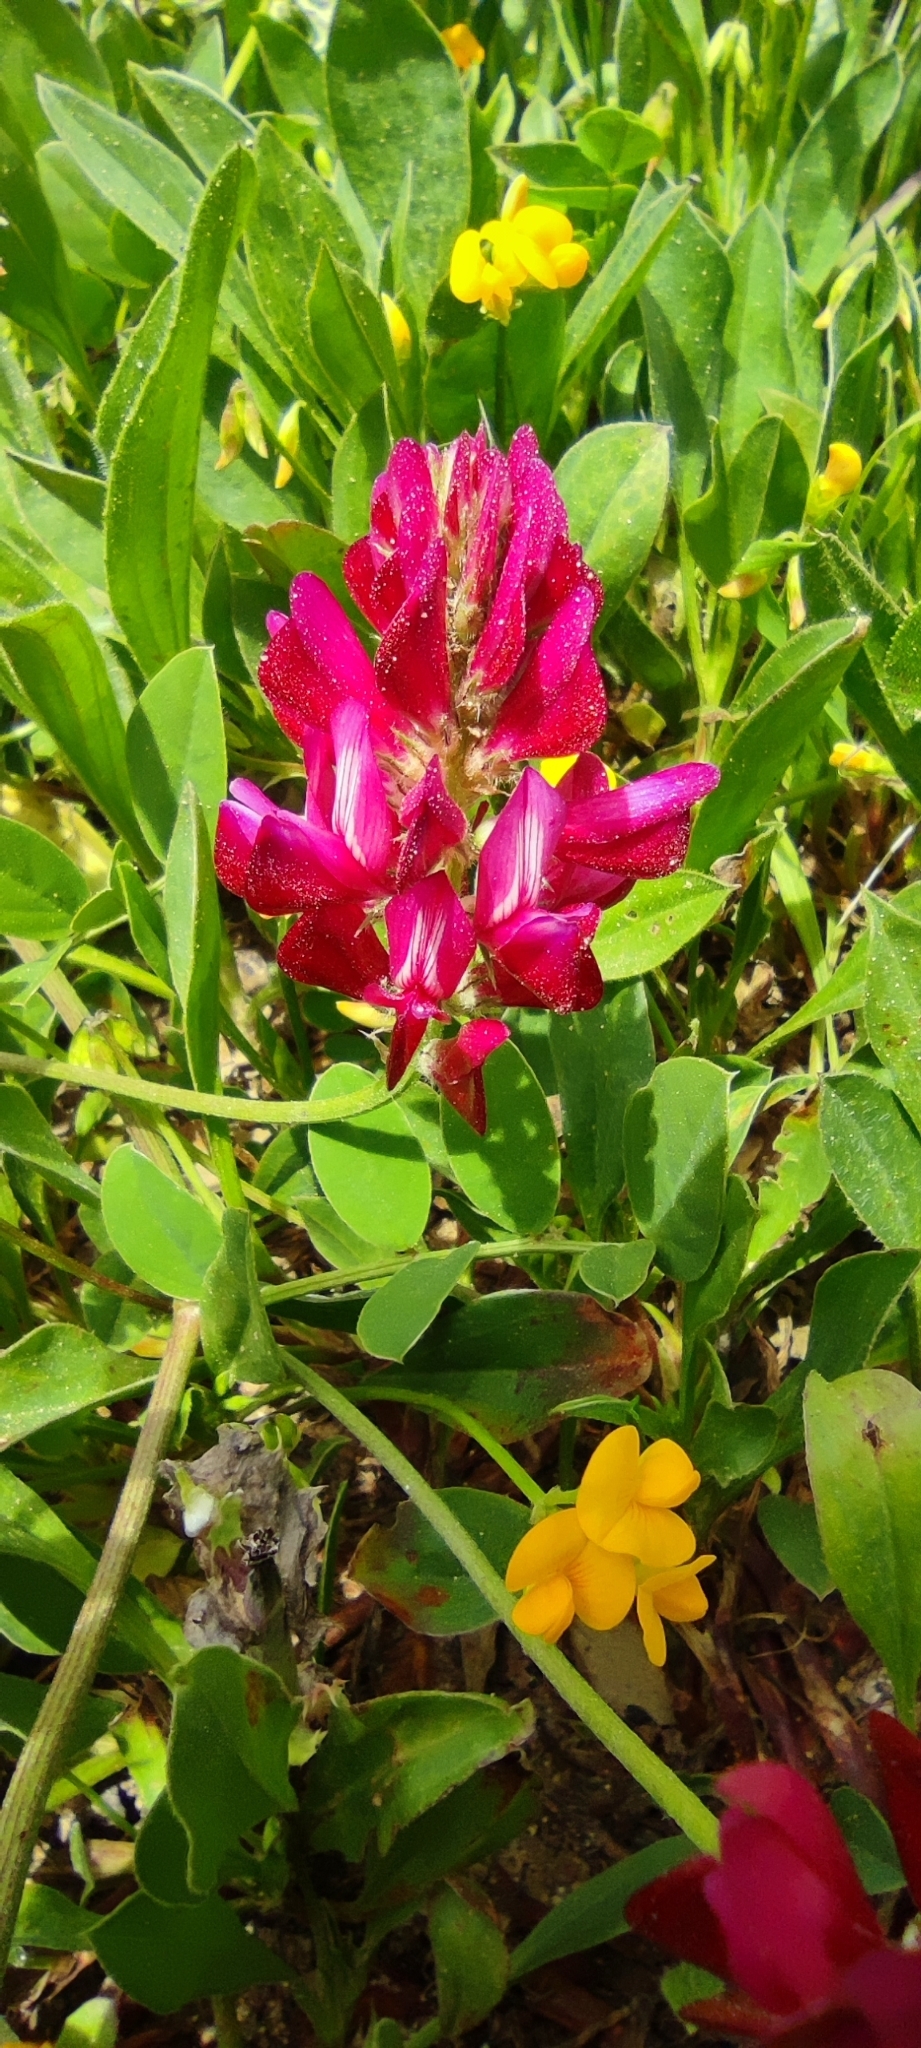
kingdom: Plantae
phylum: Tracheophyta
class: Magnoliopsida
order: Fabales
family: Fabaceae
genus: Sulla
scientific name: Sulla coronaria
